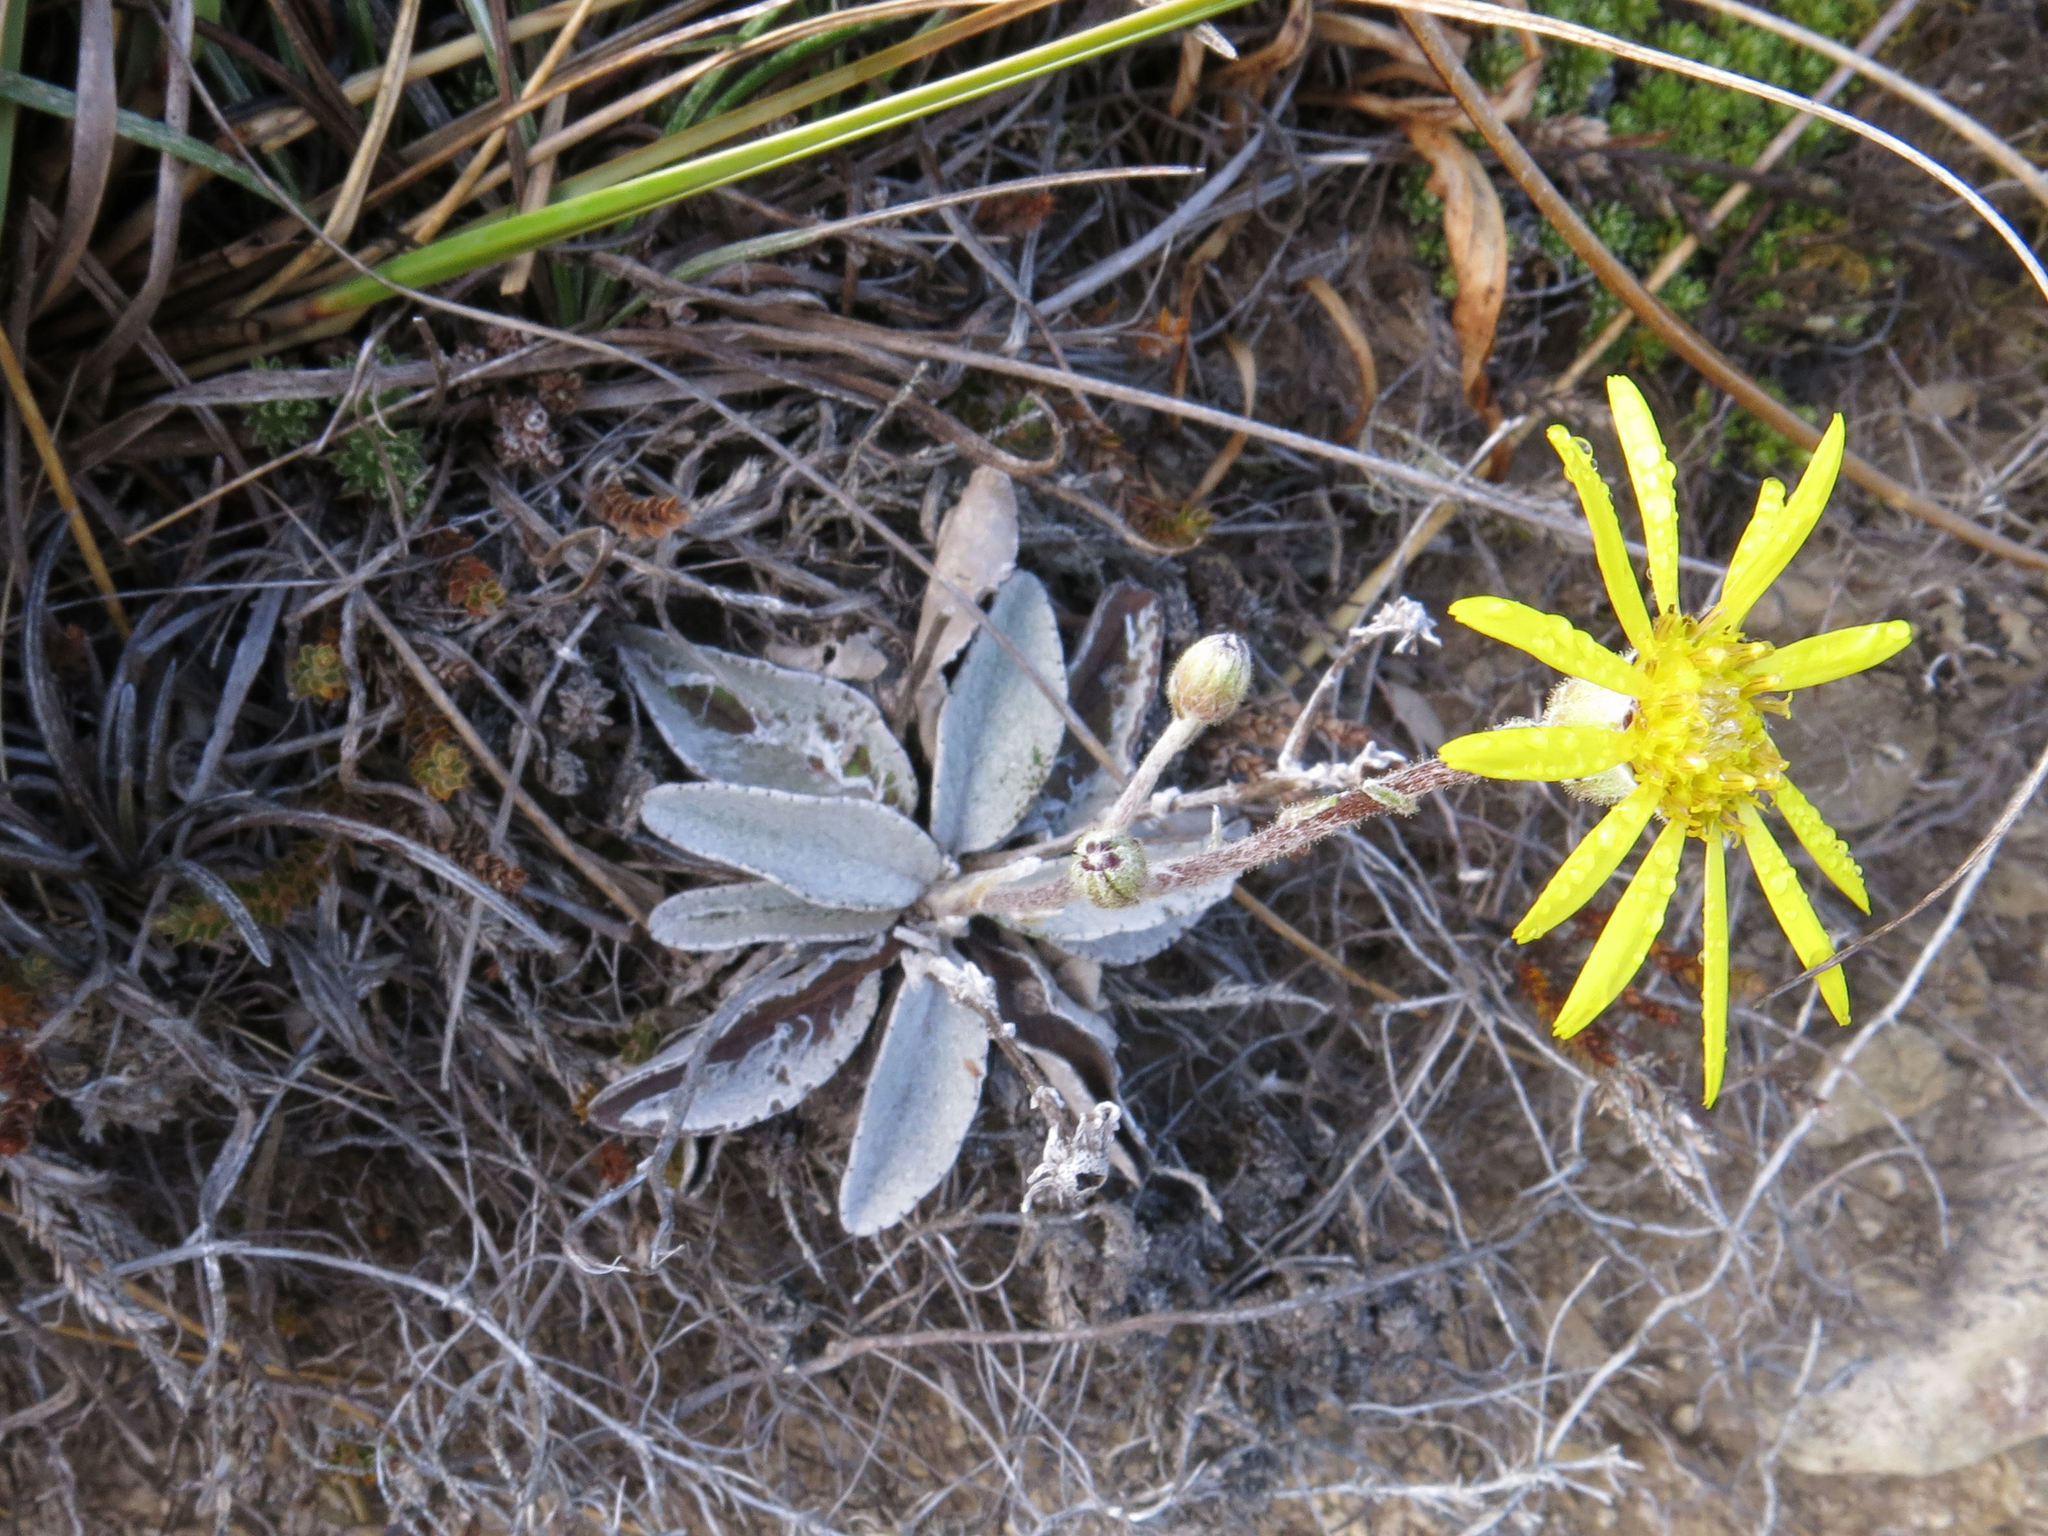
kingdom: Plantae
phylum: Tracheophyta
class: Magnoliopsida
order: Asterales
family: Asteraceae
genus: Brachyglottis
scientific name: Brachyglottis haastii
